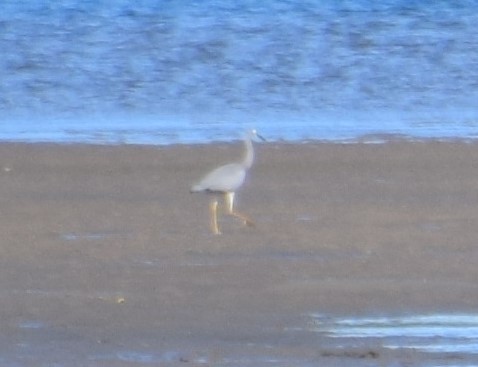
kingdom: Animalia
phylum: Chordata
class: Aves
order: Pelecaniformes
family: Ardeidae
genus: Egretta
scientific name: Egretta novaehollandiae
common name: White-faced heron
